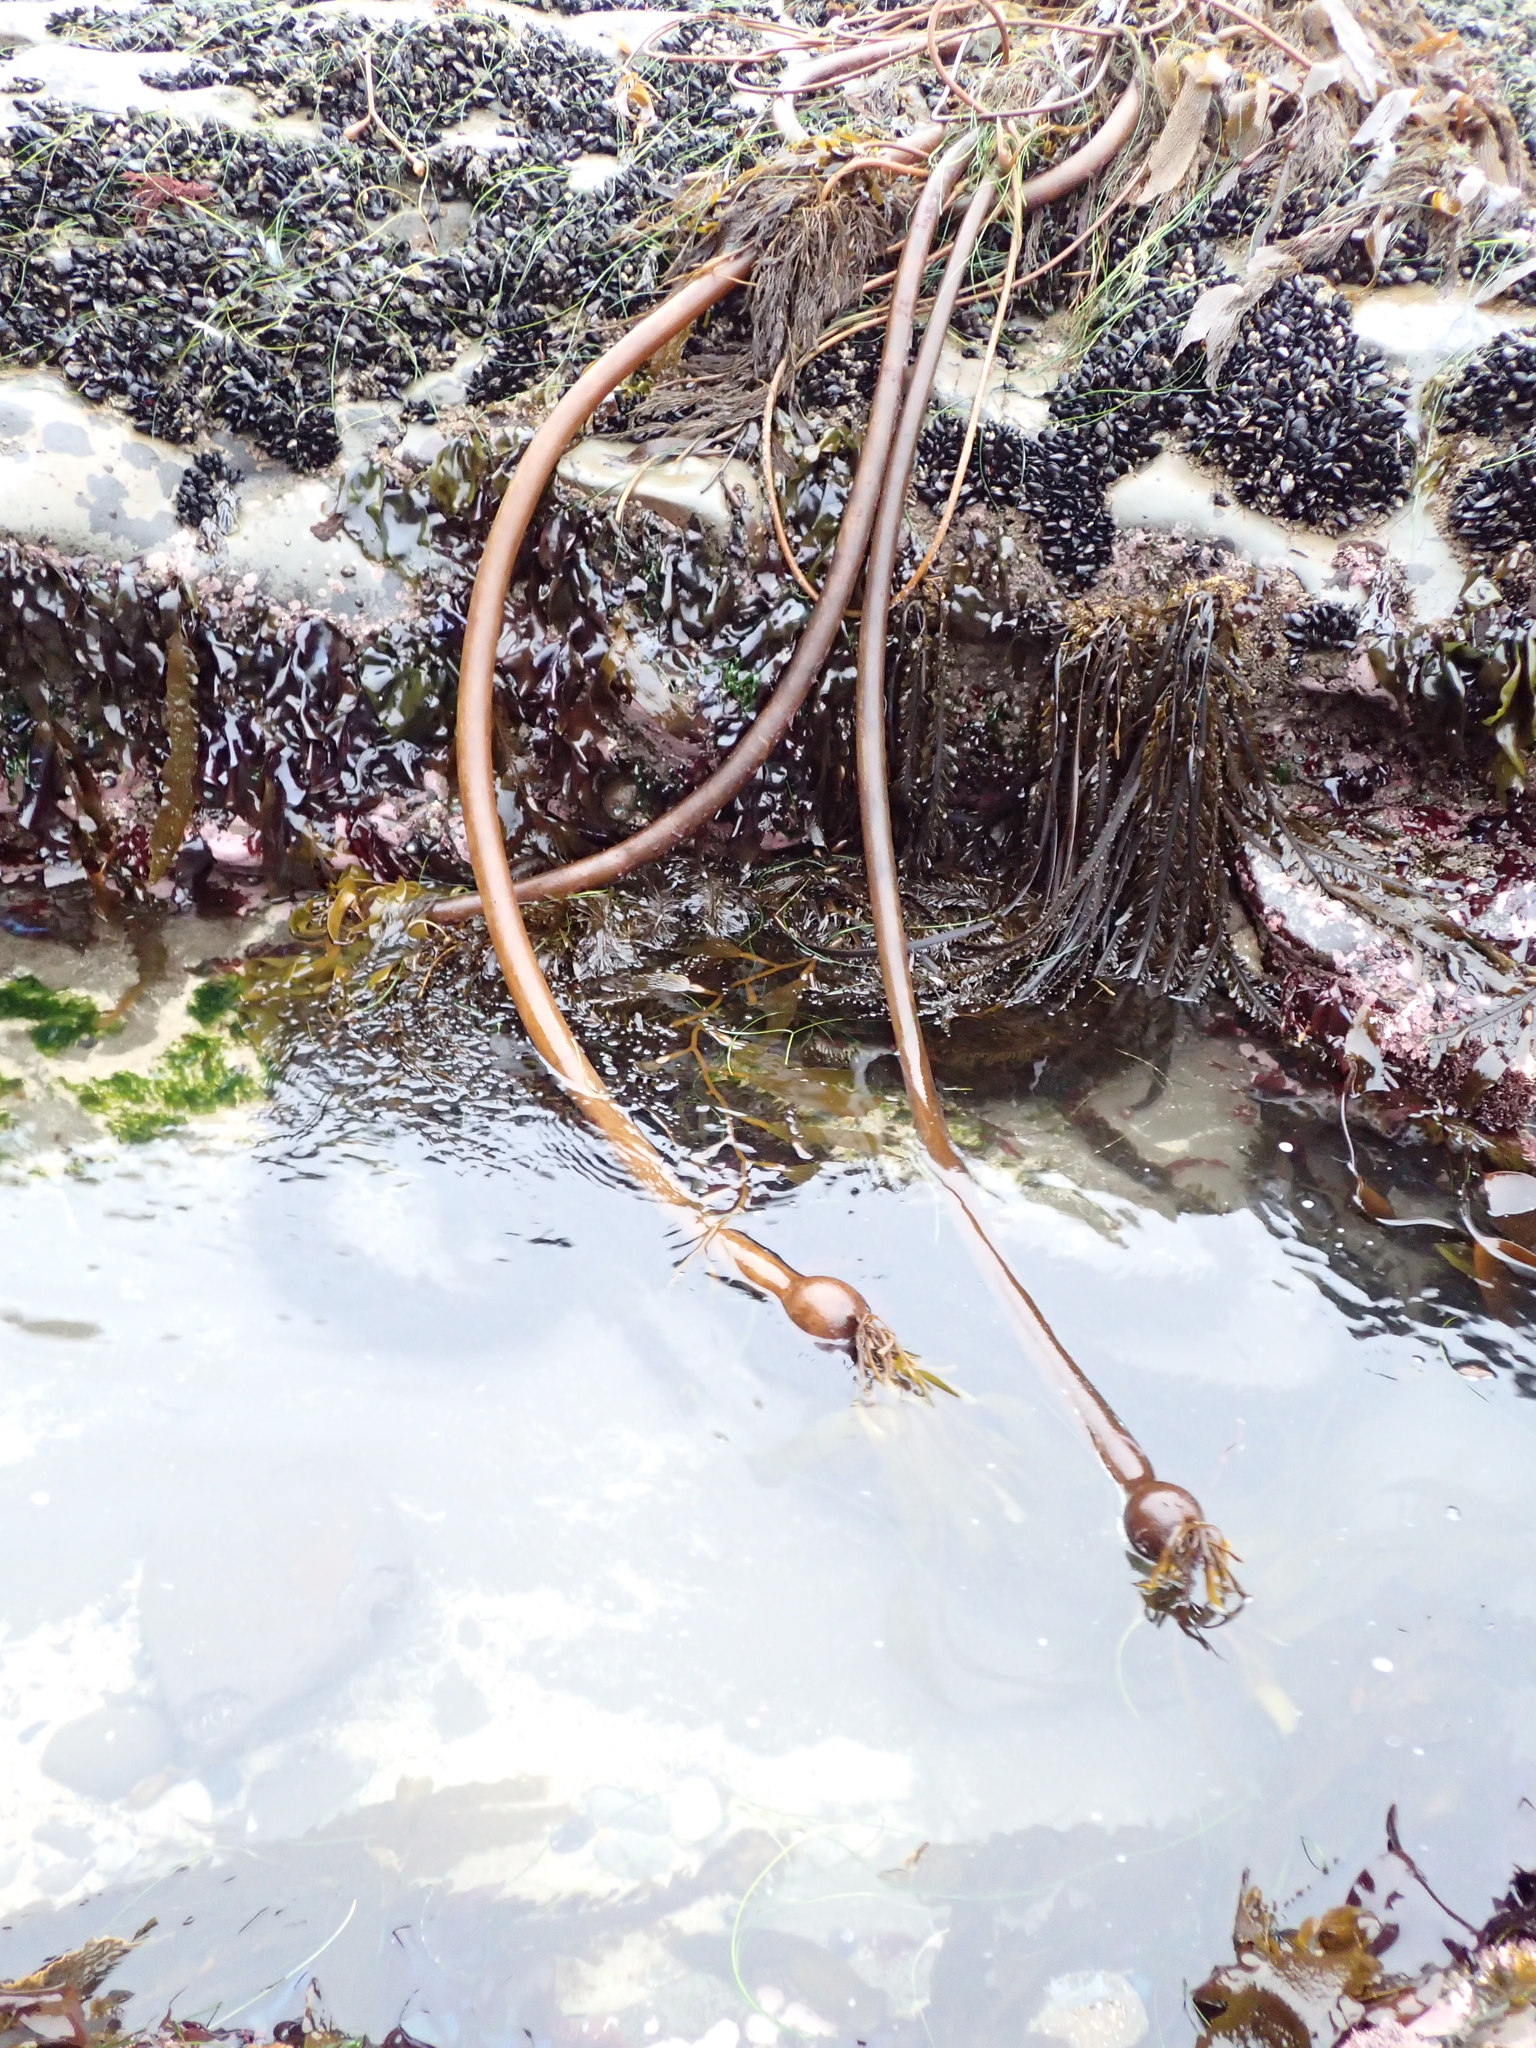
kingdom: Chromista
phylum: Ochrophyta
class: Phaeophyceae
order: Laminariales
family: Laminariaceae
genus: Nereocystis
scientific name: Nereocystis luetkeana
